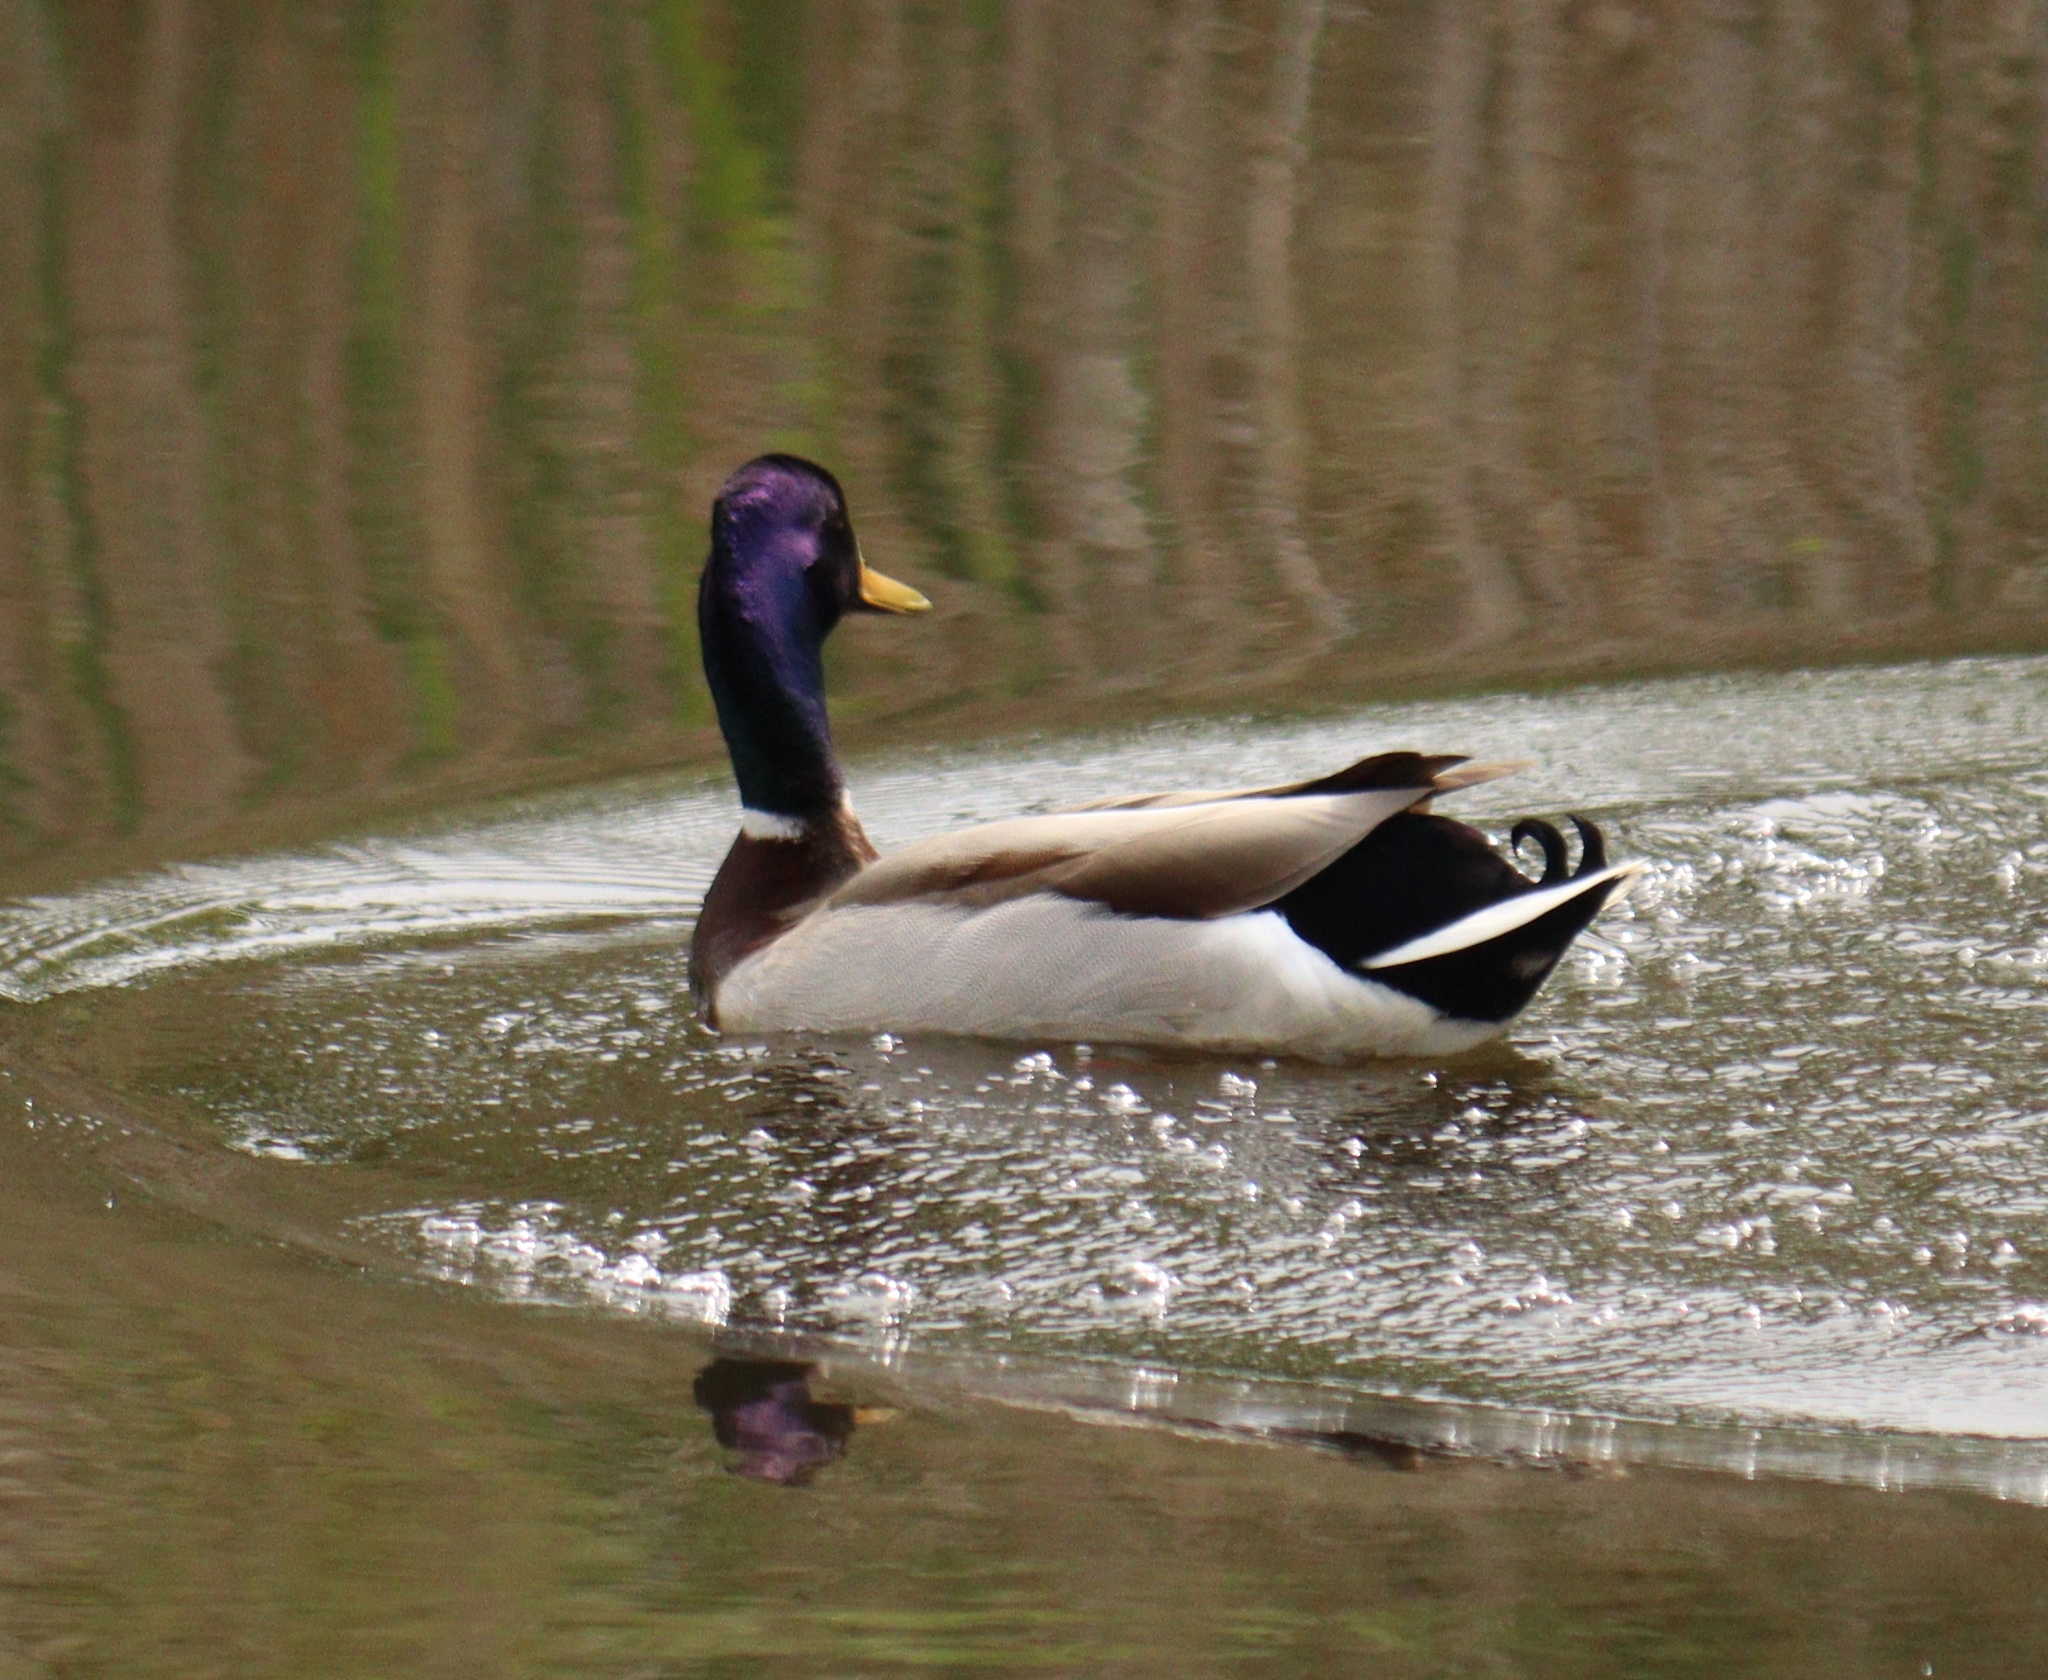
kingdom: Animalia
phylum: Chordata
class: Aves
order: Anseriformes
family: Anatidae
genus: Anas
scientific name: Anas platyrhynchos
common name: Mallard
